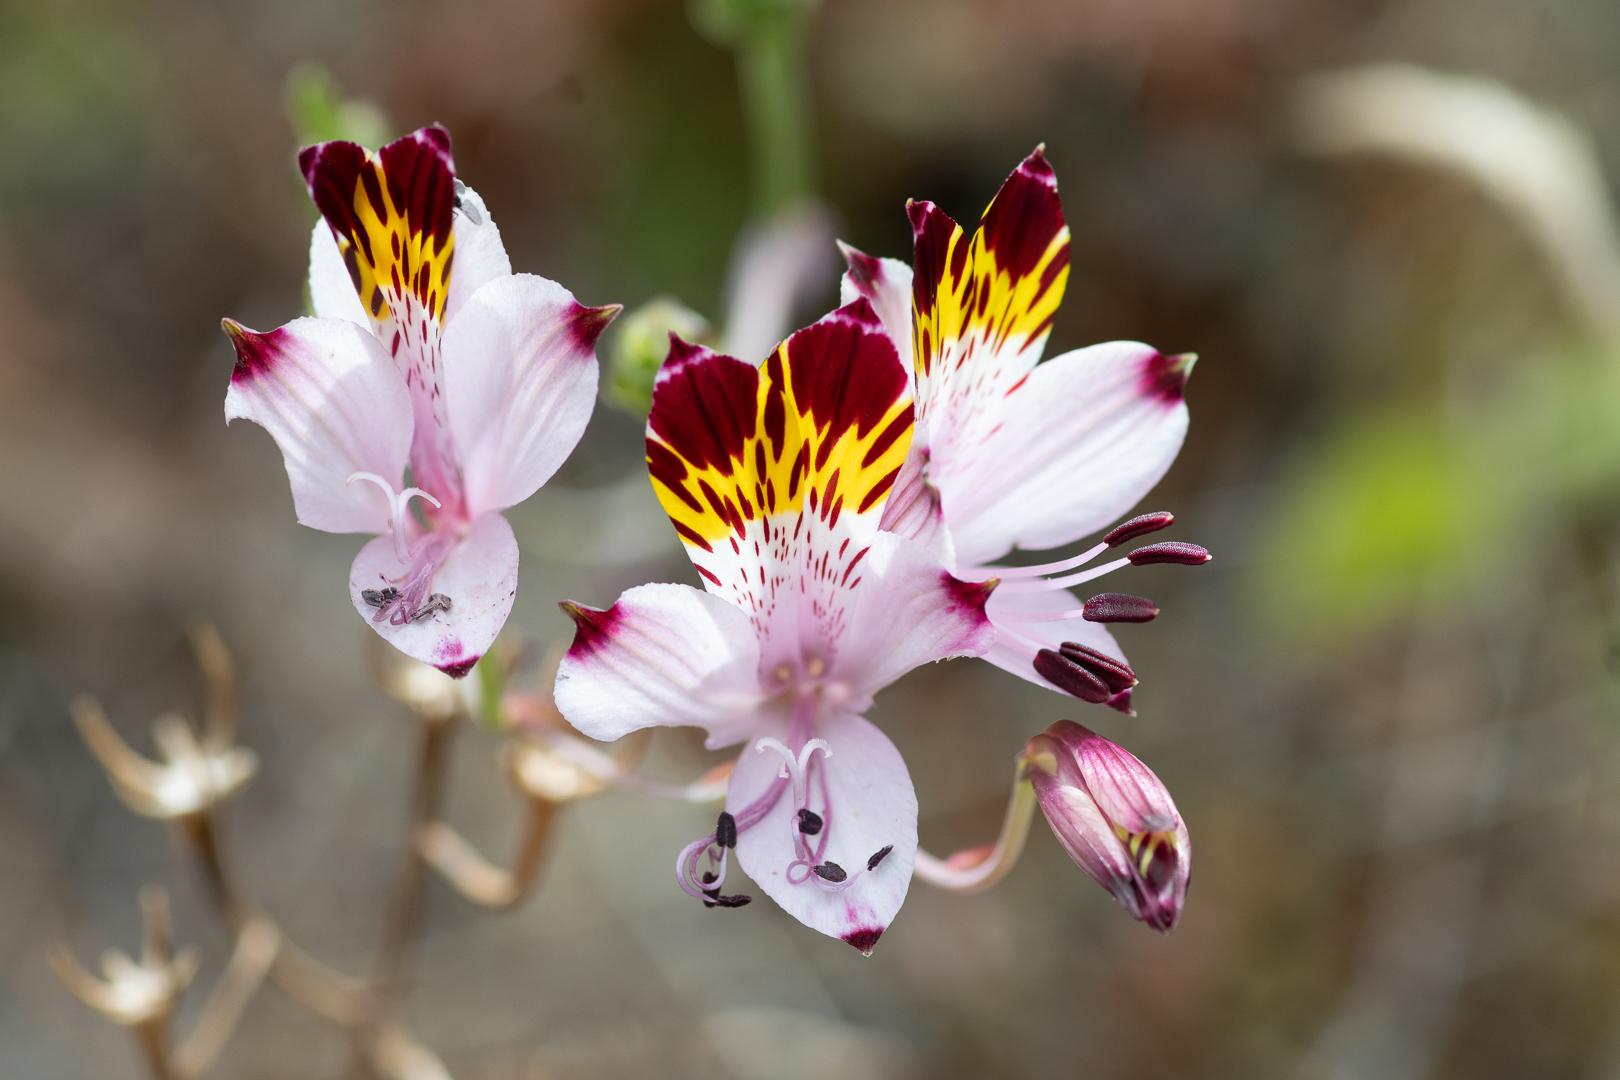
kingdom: Plantae
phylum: Tracheophyta
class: Liliopsida
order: Liliales
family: Alstroemeriaceae
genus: Alstroemeria
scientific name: Alstroemeria pulchra
